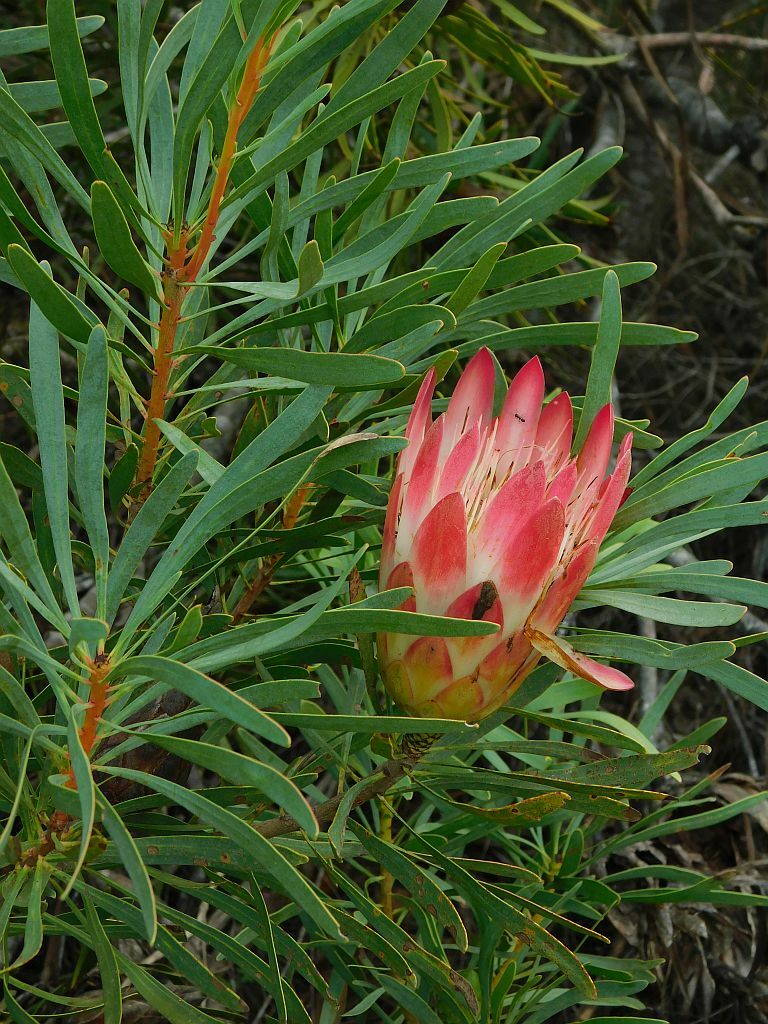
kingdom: Plantae
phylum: Tracheophyta
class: Magnoliopsida
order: Proteales
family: Proteaceae
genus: Protea
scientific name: Protea repens
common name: Sugarbush
